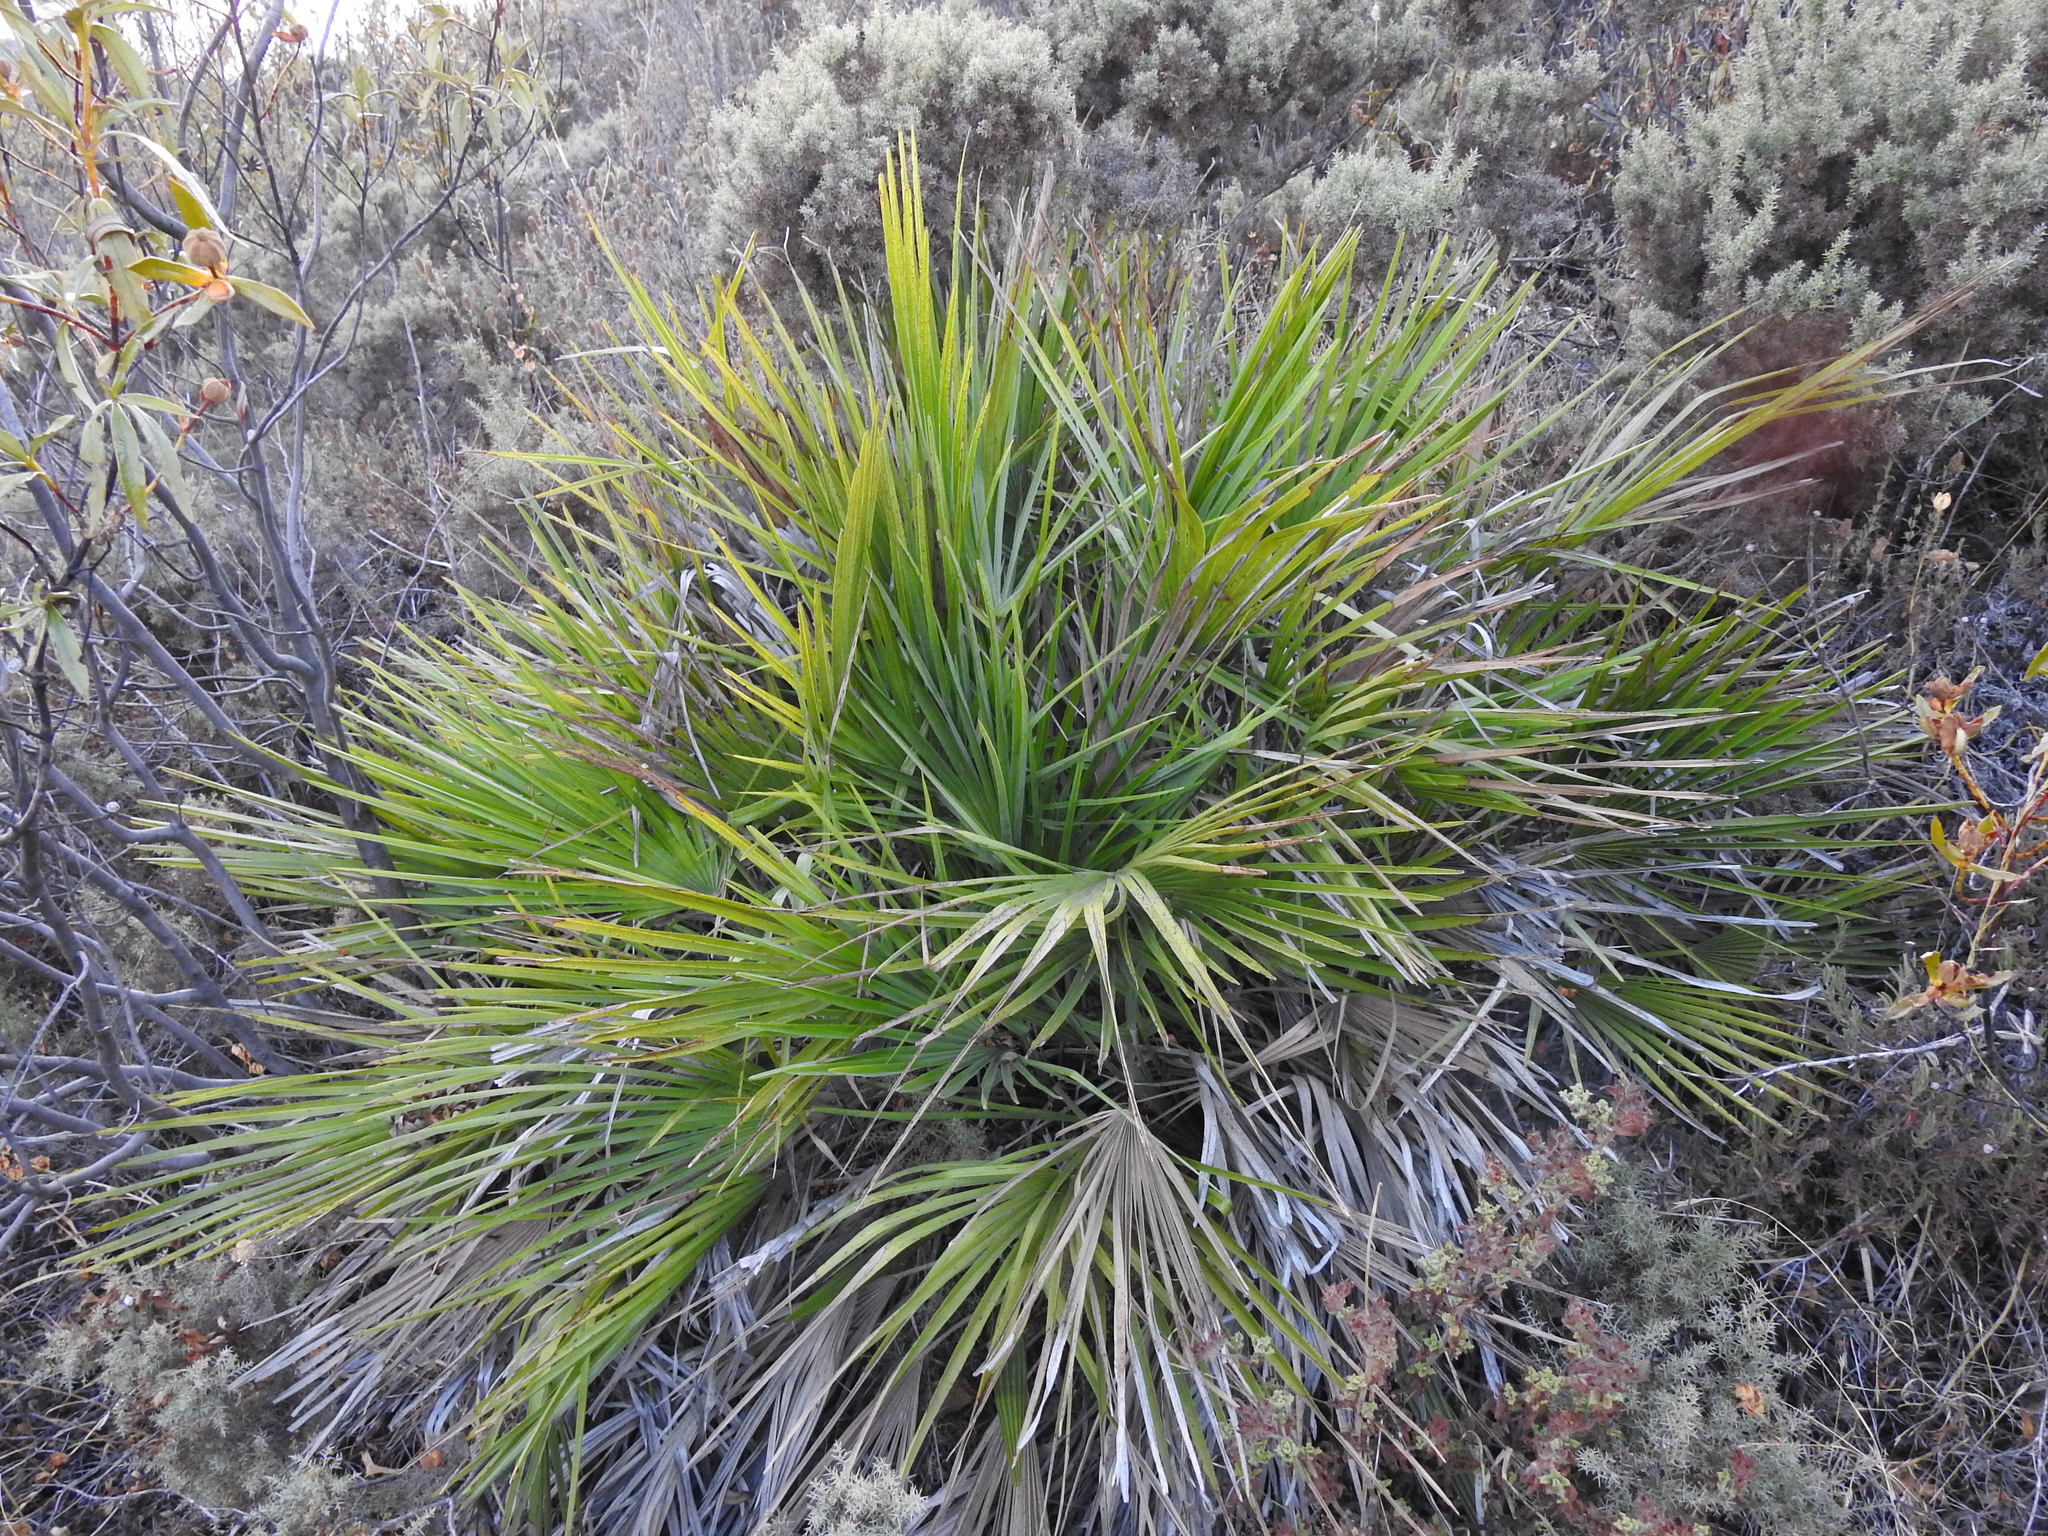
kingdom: Plantae
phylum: Tracheophyta
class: Liliopsida
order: Arecales
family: Arecaceae
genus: Chamaerops
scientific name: Chamaerops humilis
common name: Dwarf fan palm
